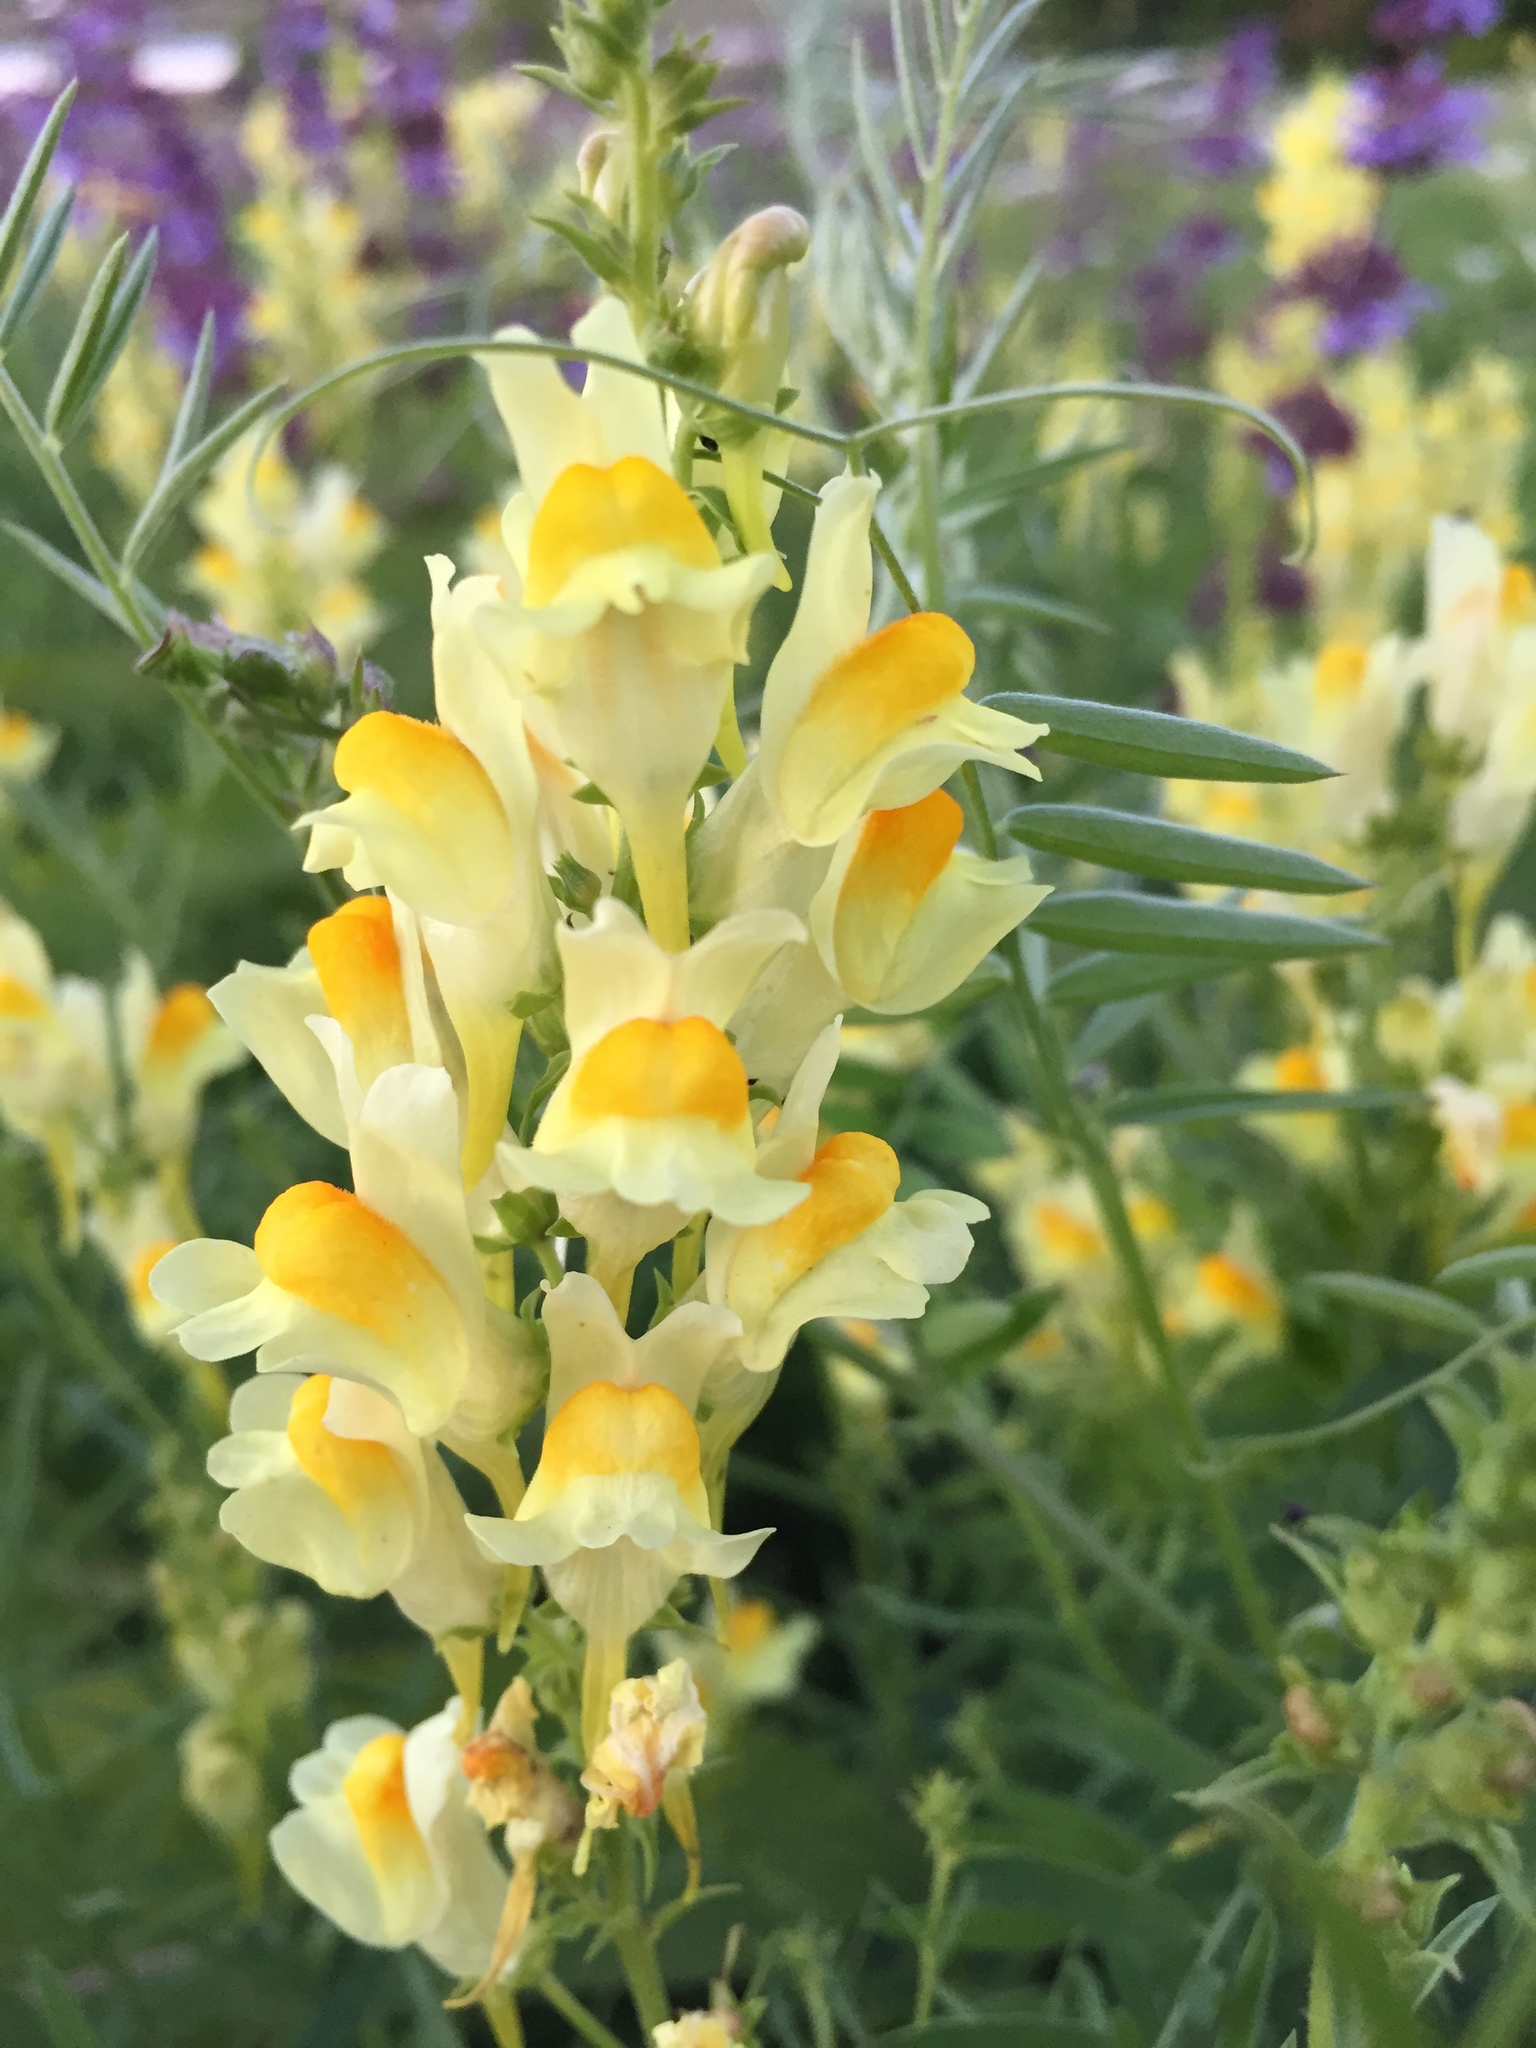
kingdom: Plantae
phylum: Tracheophyta
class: Magnoliopsida
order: Lamiales
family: Plantaginaceae
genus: Linaria
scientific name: Linaria vulgaris
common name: Butter and eggs
